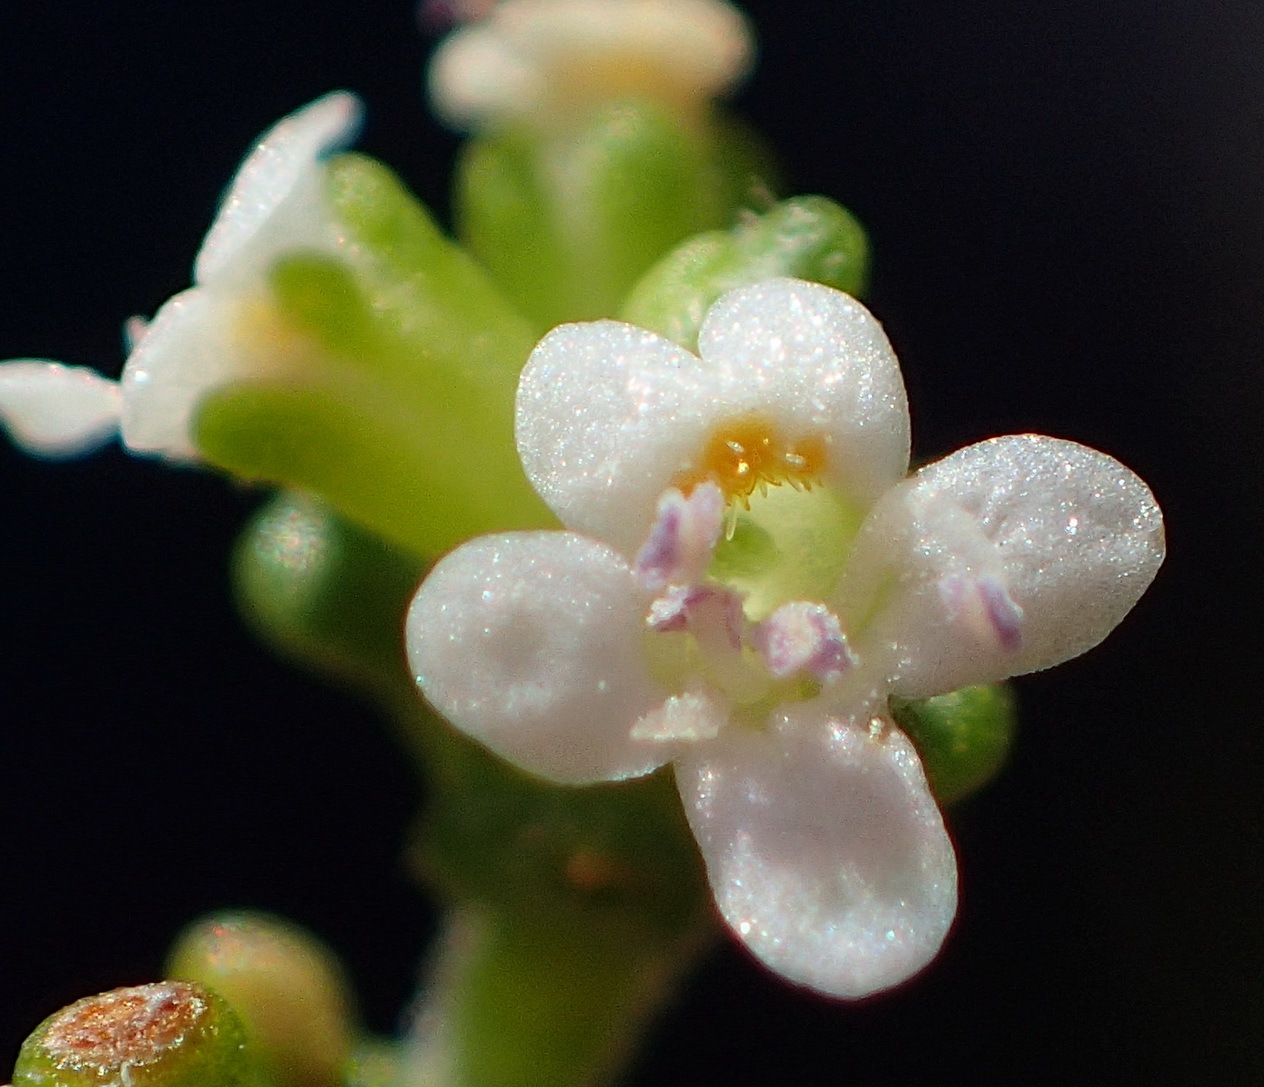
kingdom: Plantae
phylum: Tracheophyta
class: Magnoliopsida
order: Lamiales
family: Scrophulariaceae
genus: Phyllopodium
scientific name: Phyllopodium dolomiticum
